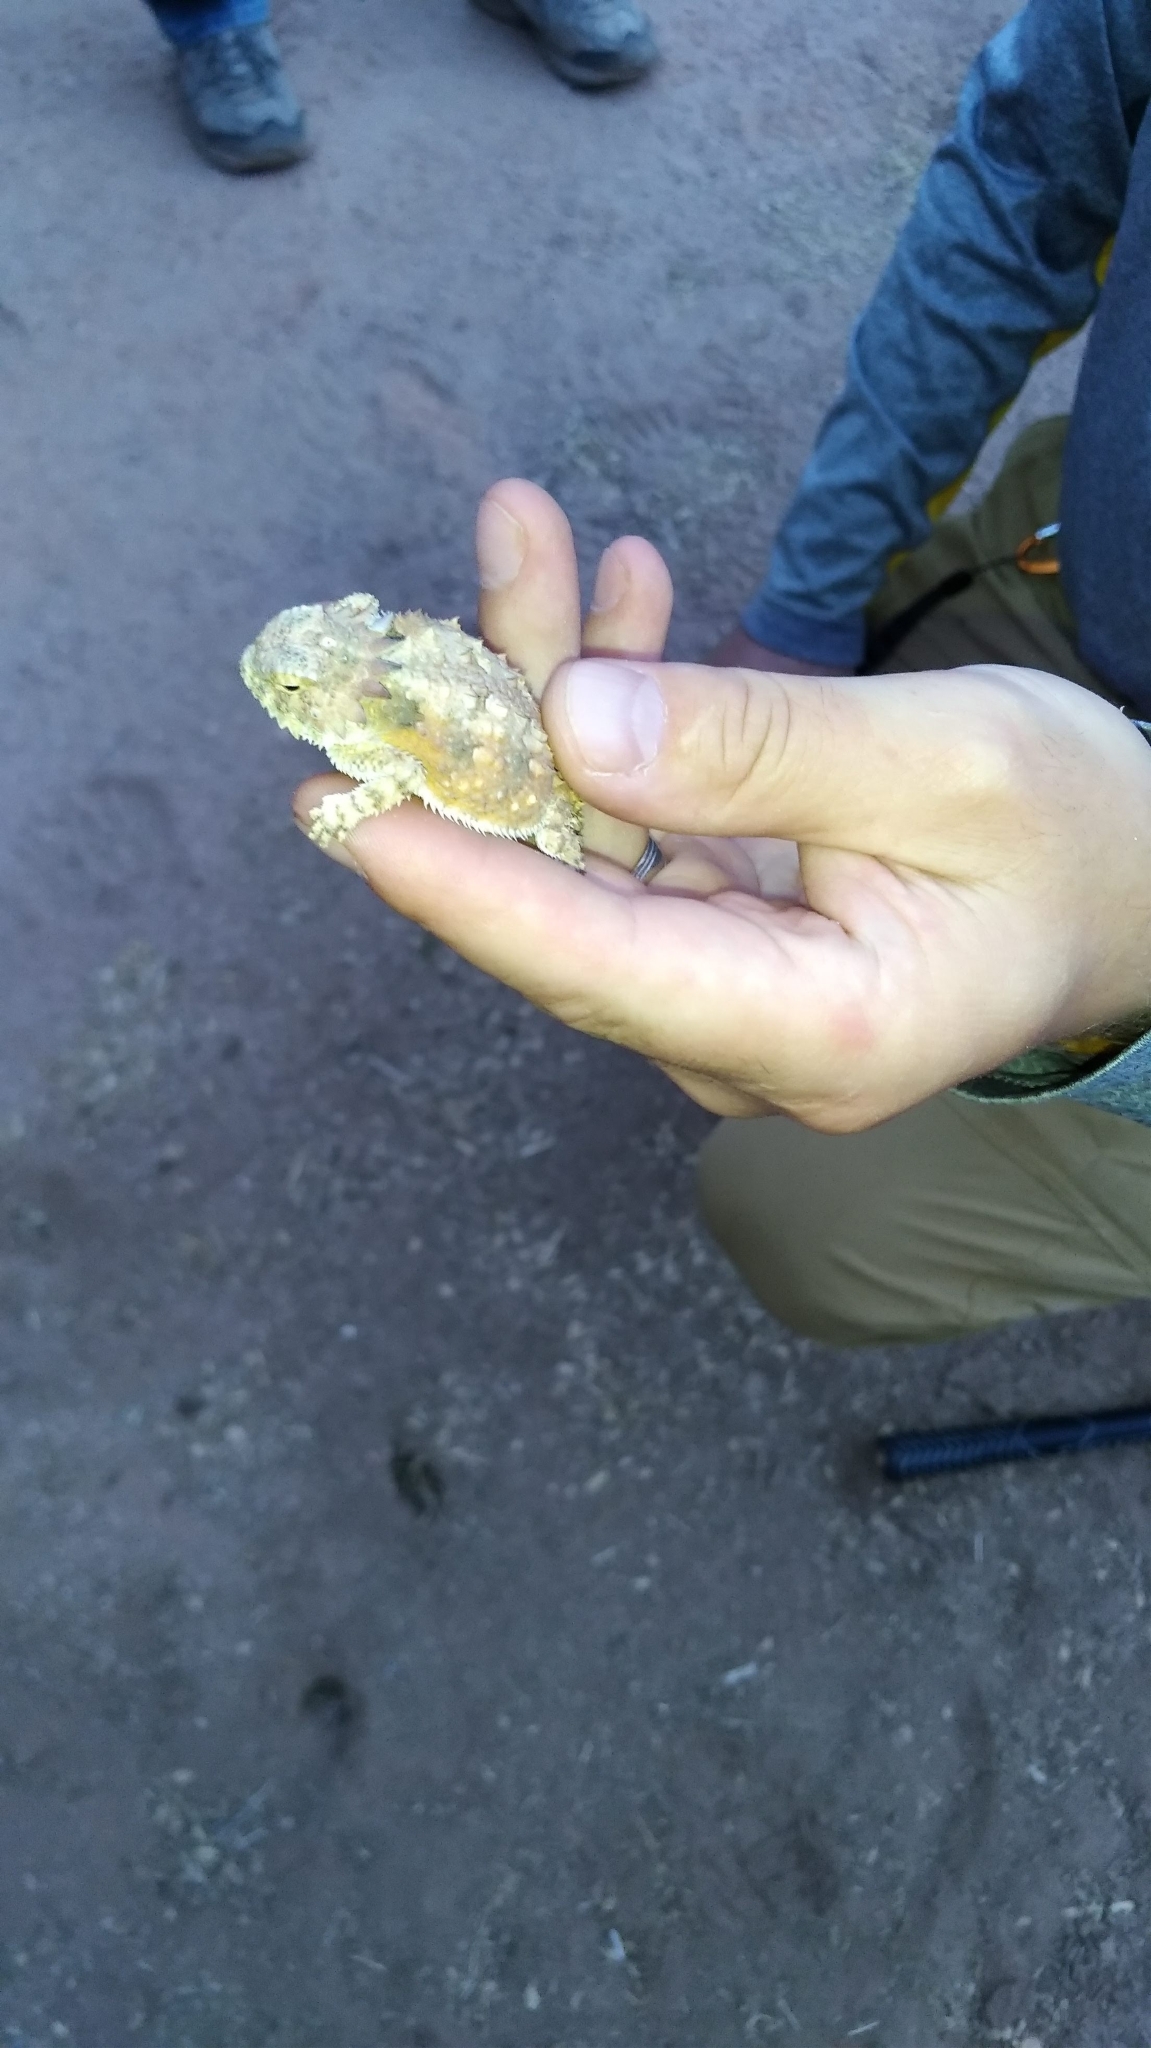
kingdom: Animalia
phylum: Chordata
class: Squamata
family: Phrynosomatidae
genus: Phrynosoma
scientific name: Phrynosoma solare
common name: Regal horned lizard
